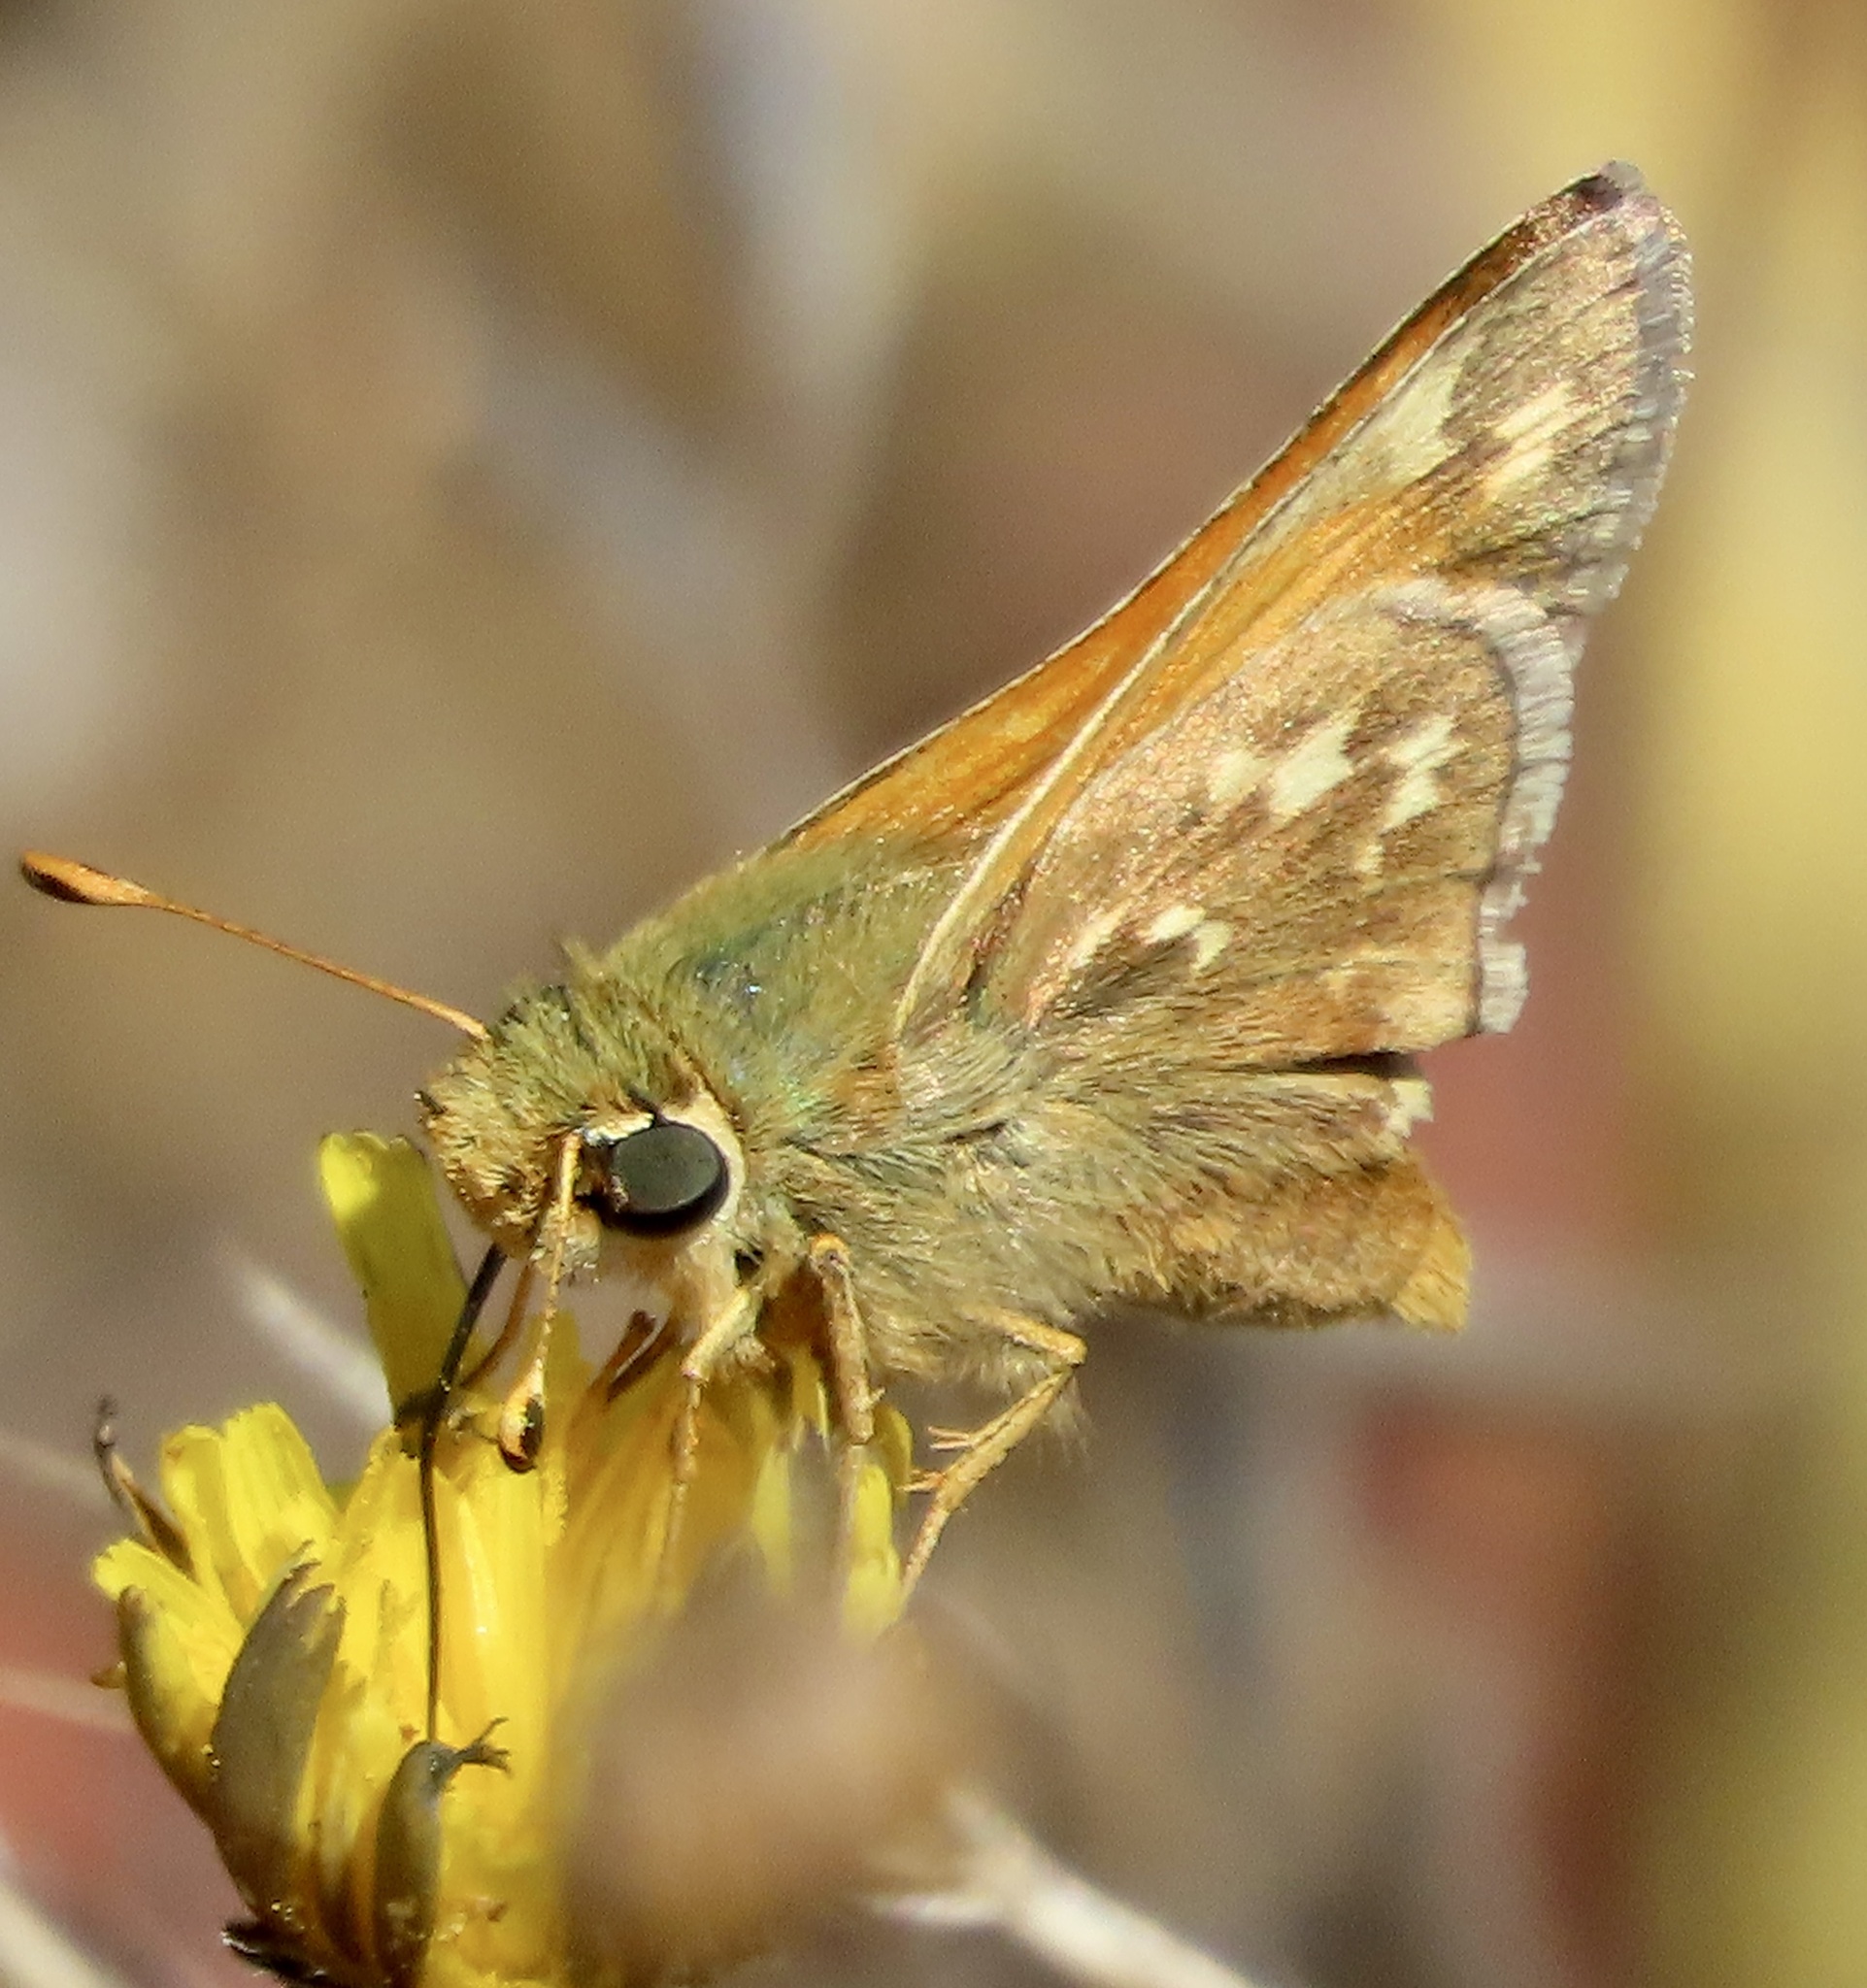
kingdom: Animalia
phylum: Arthropoda
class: Insecta
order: Lepidoptera
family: Hesperiidae
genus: Hesperia
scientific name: Hesperia harpalus
